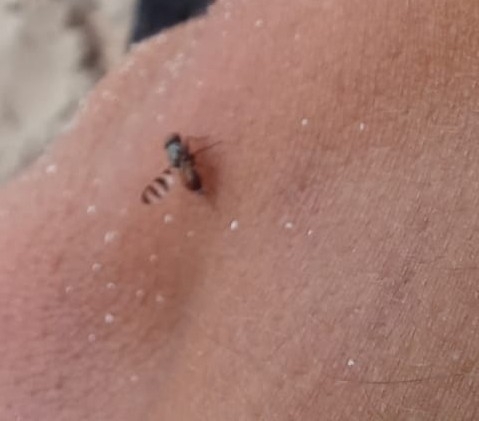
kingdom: Animalia
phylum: Arthropoda
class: Insecta
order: Diptera
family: Ulidiidae
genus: Chaetopsis
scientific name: Chaetopsis massyla
